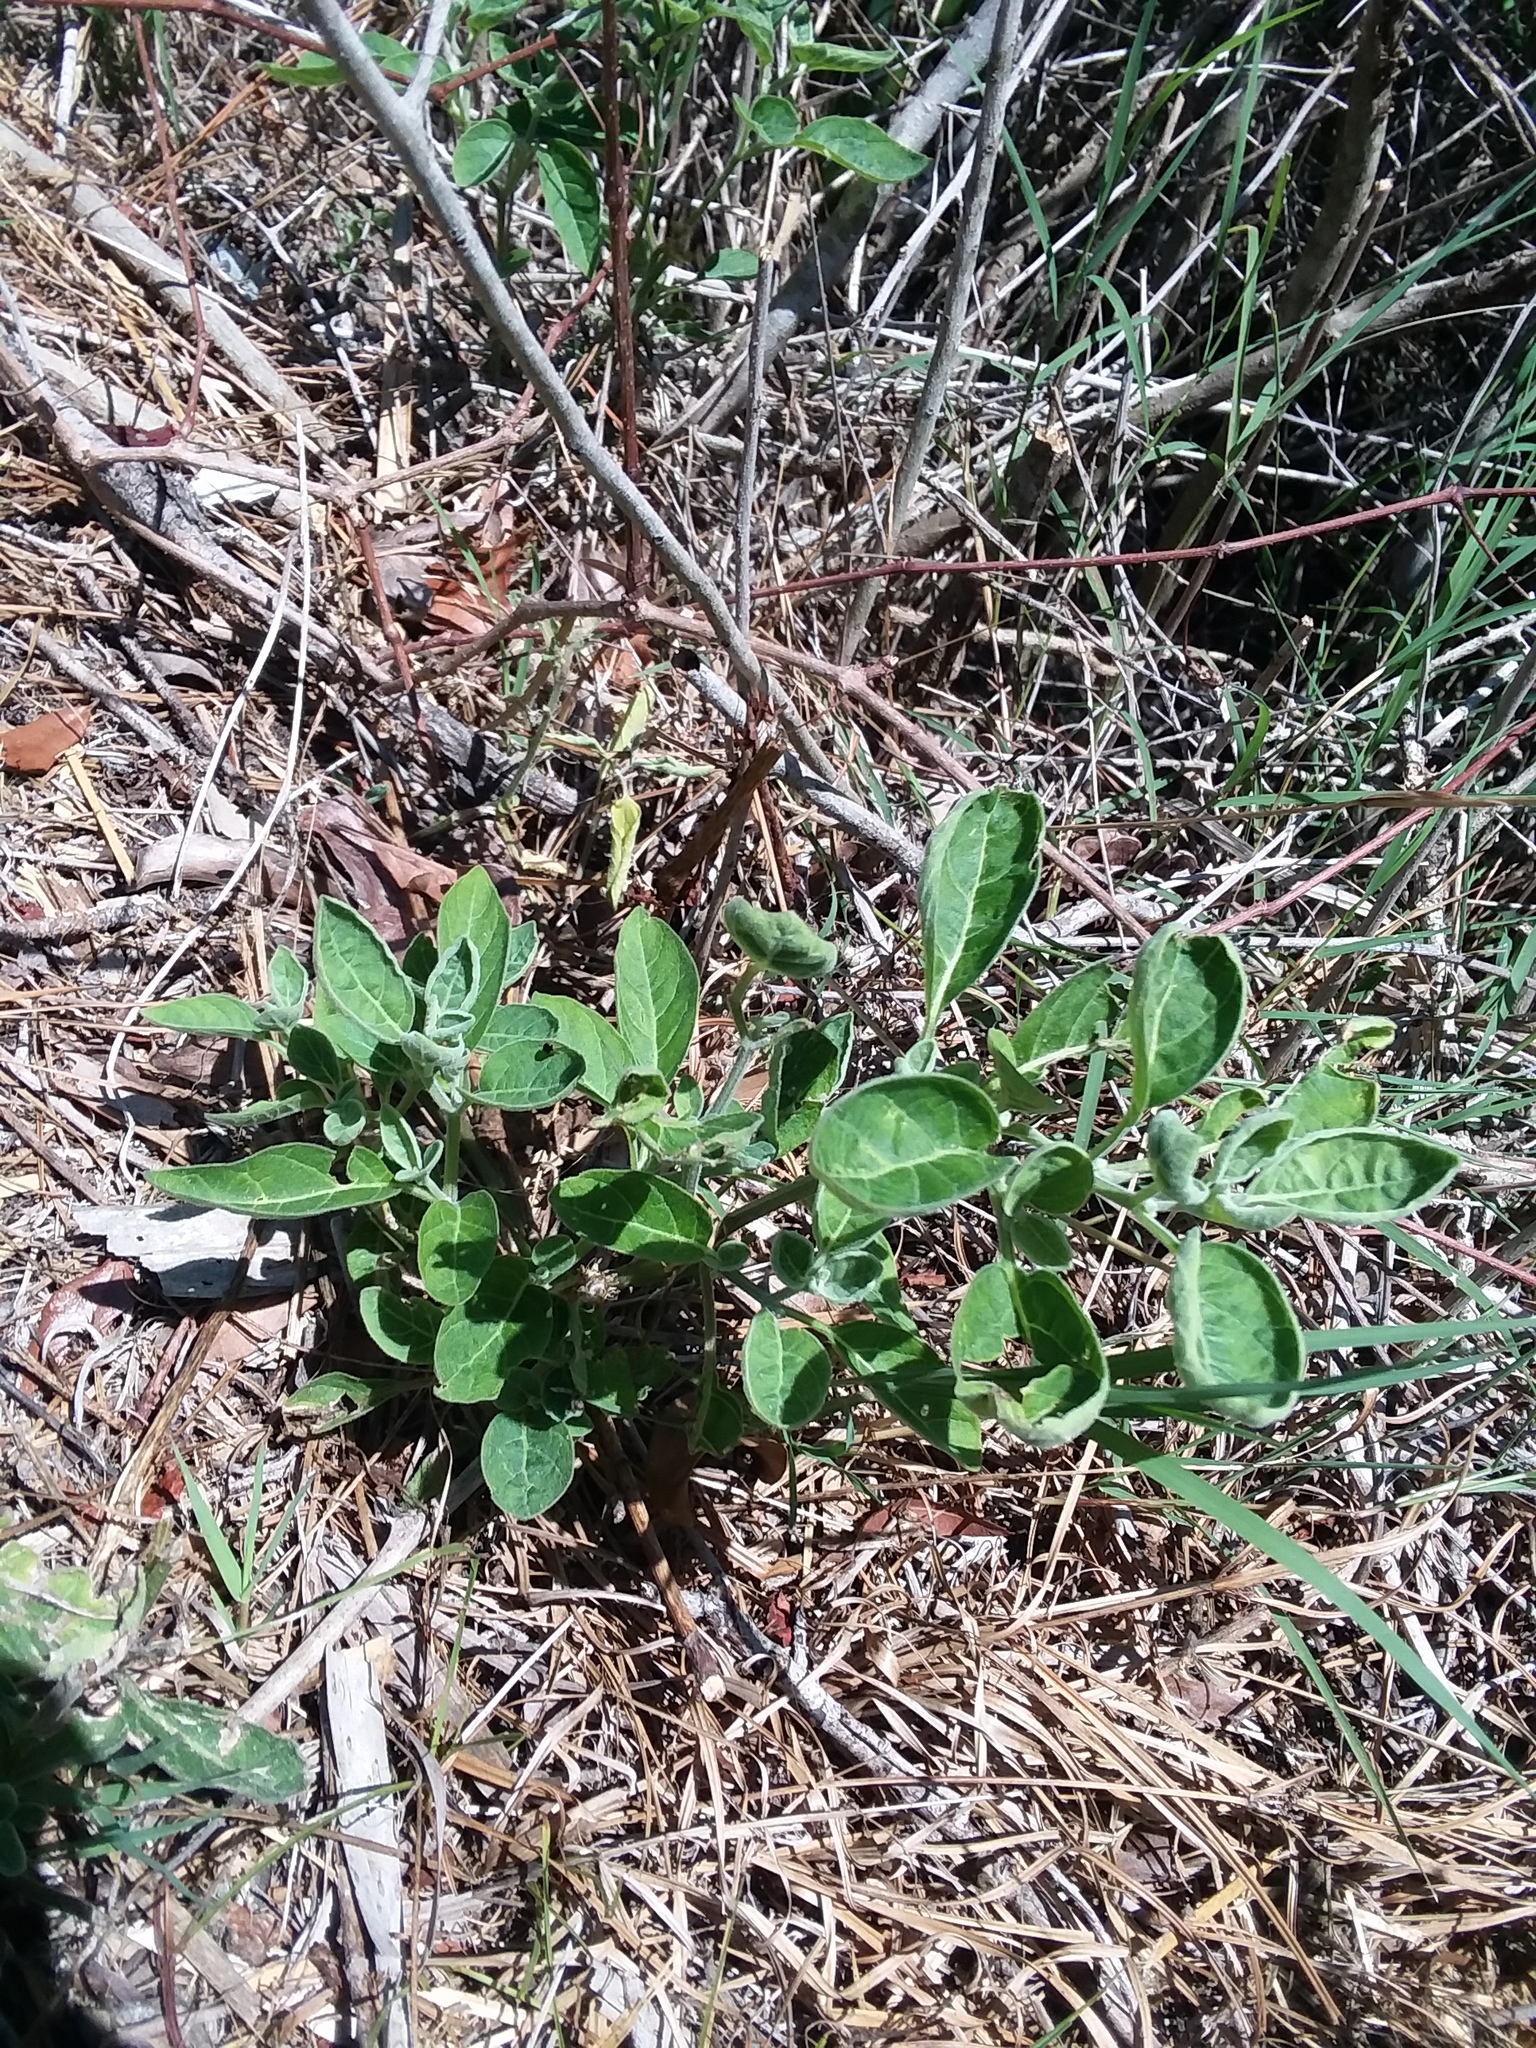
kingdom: Plantae
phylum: Tracheophyta
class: Magnoliopsida
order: Solanales
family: Solanaceae
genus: Physalis
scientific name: Physalis walteri
